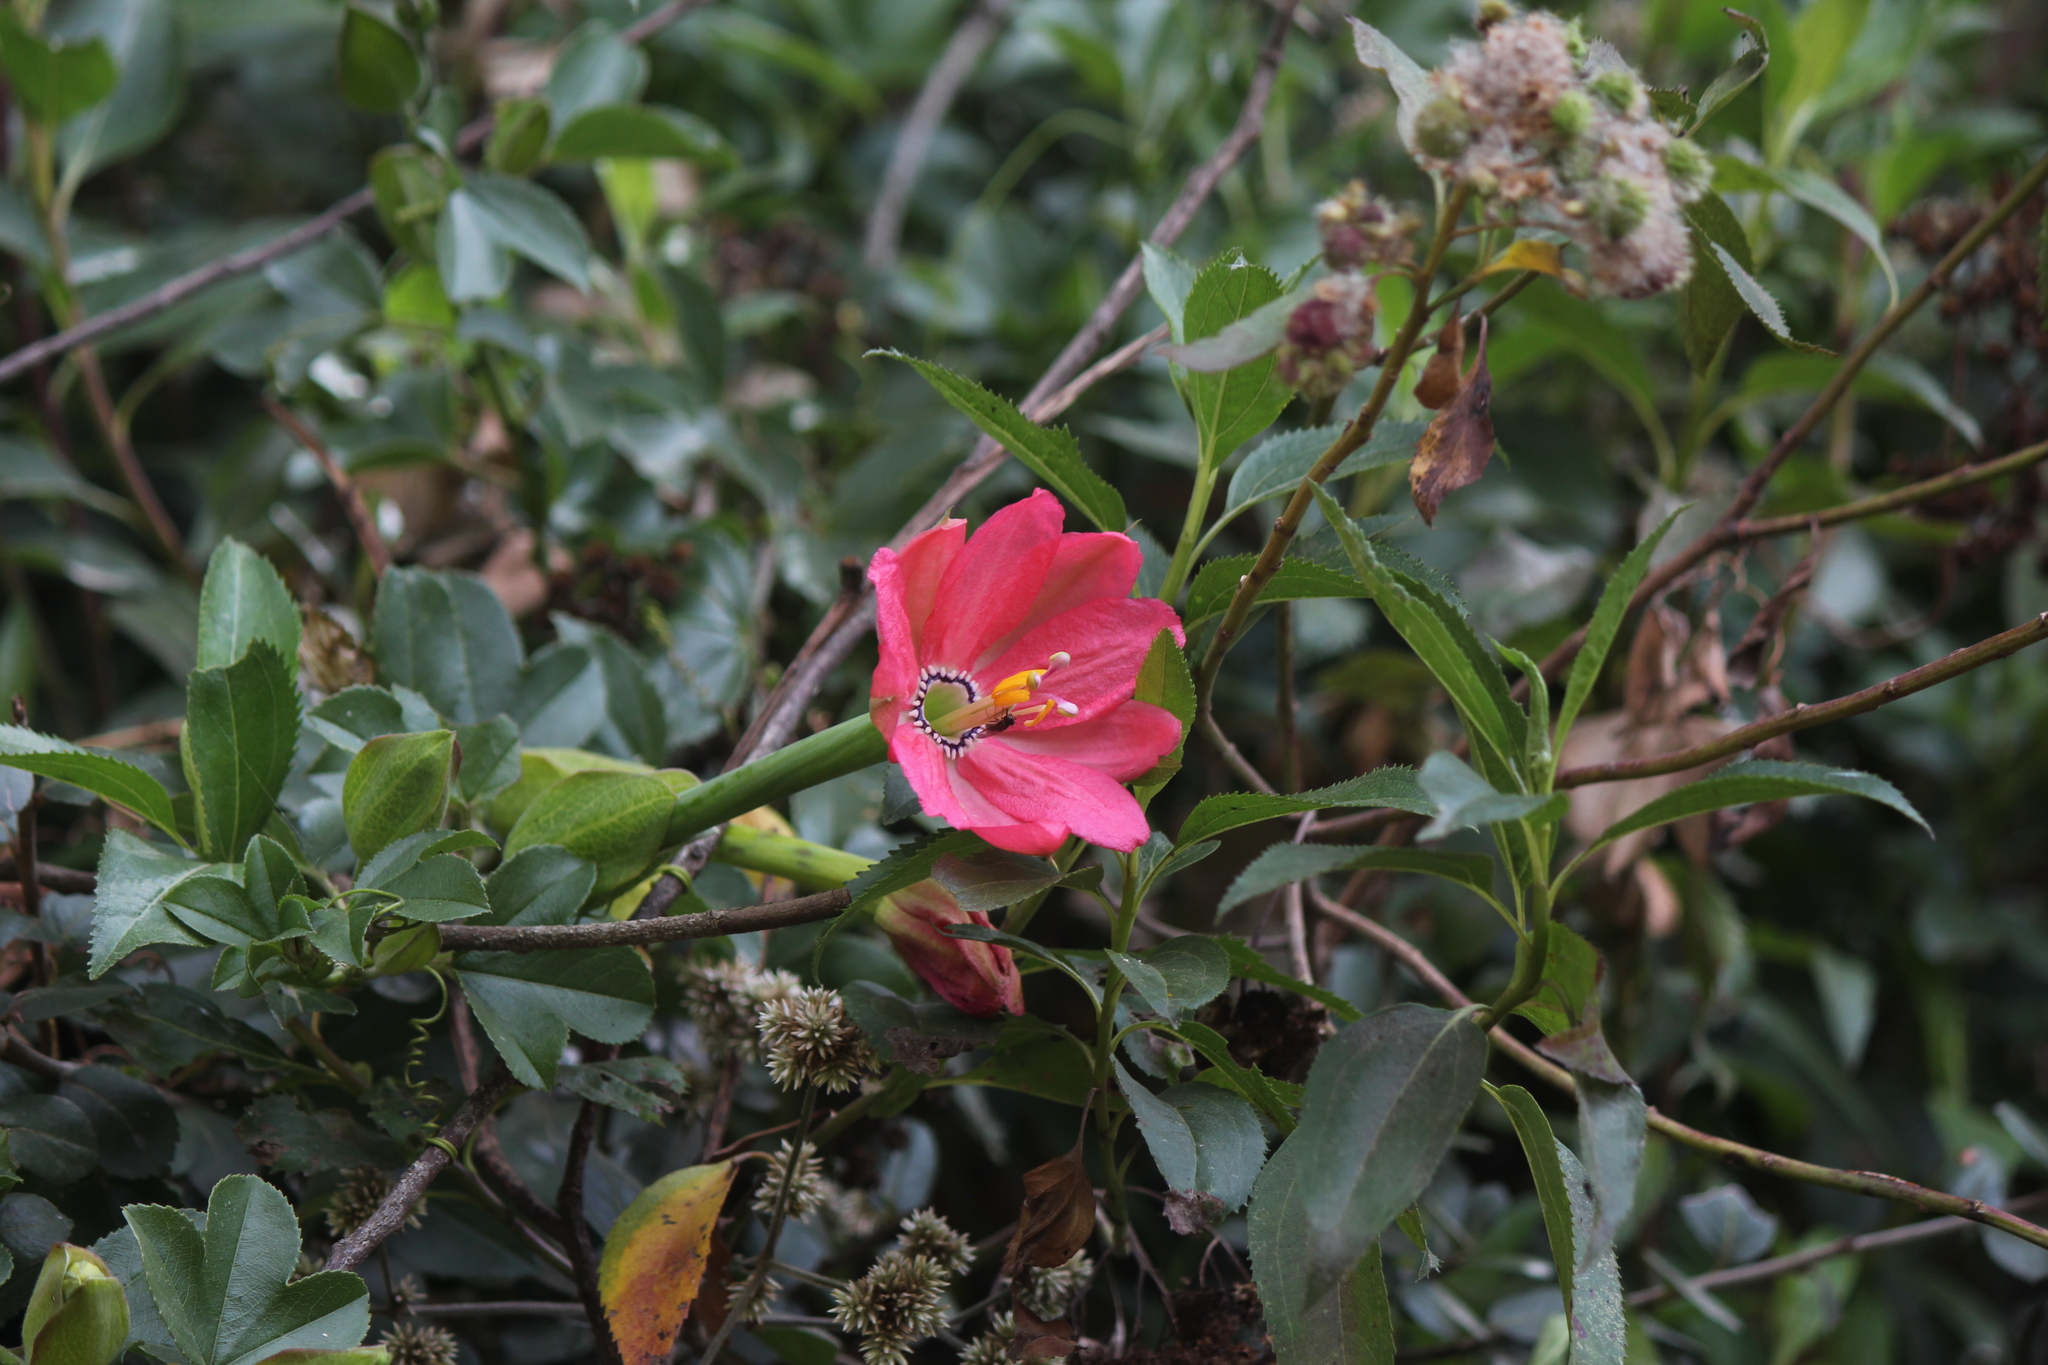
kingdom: Plantae
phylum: Tracheophyta
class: Magnoliopsida
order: Malpighiales
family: Passifloraceae
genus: Passiflora
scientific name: Passiflora mixta
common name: Passion flower
